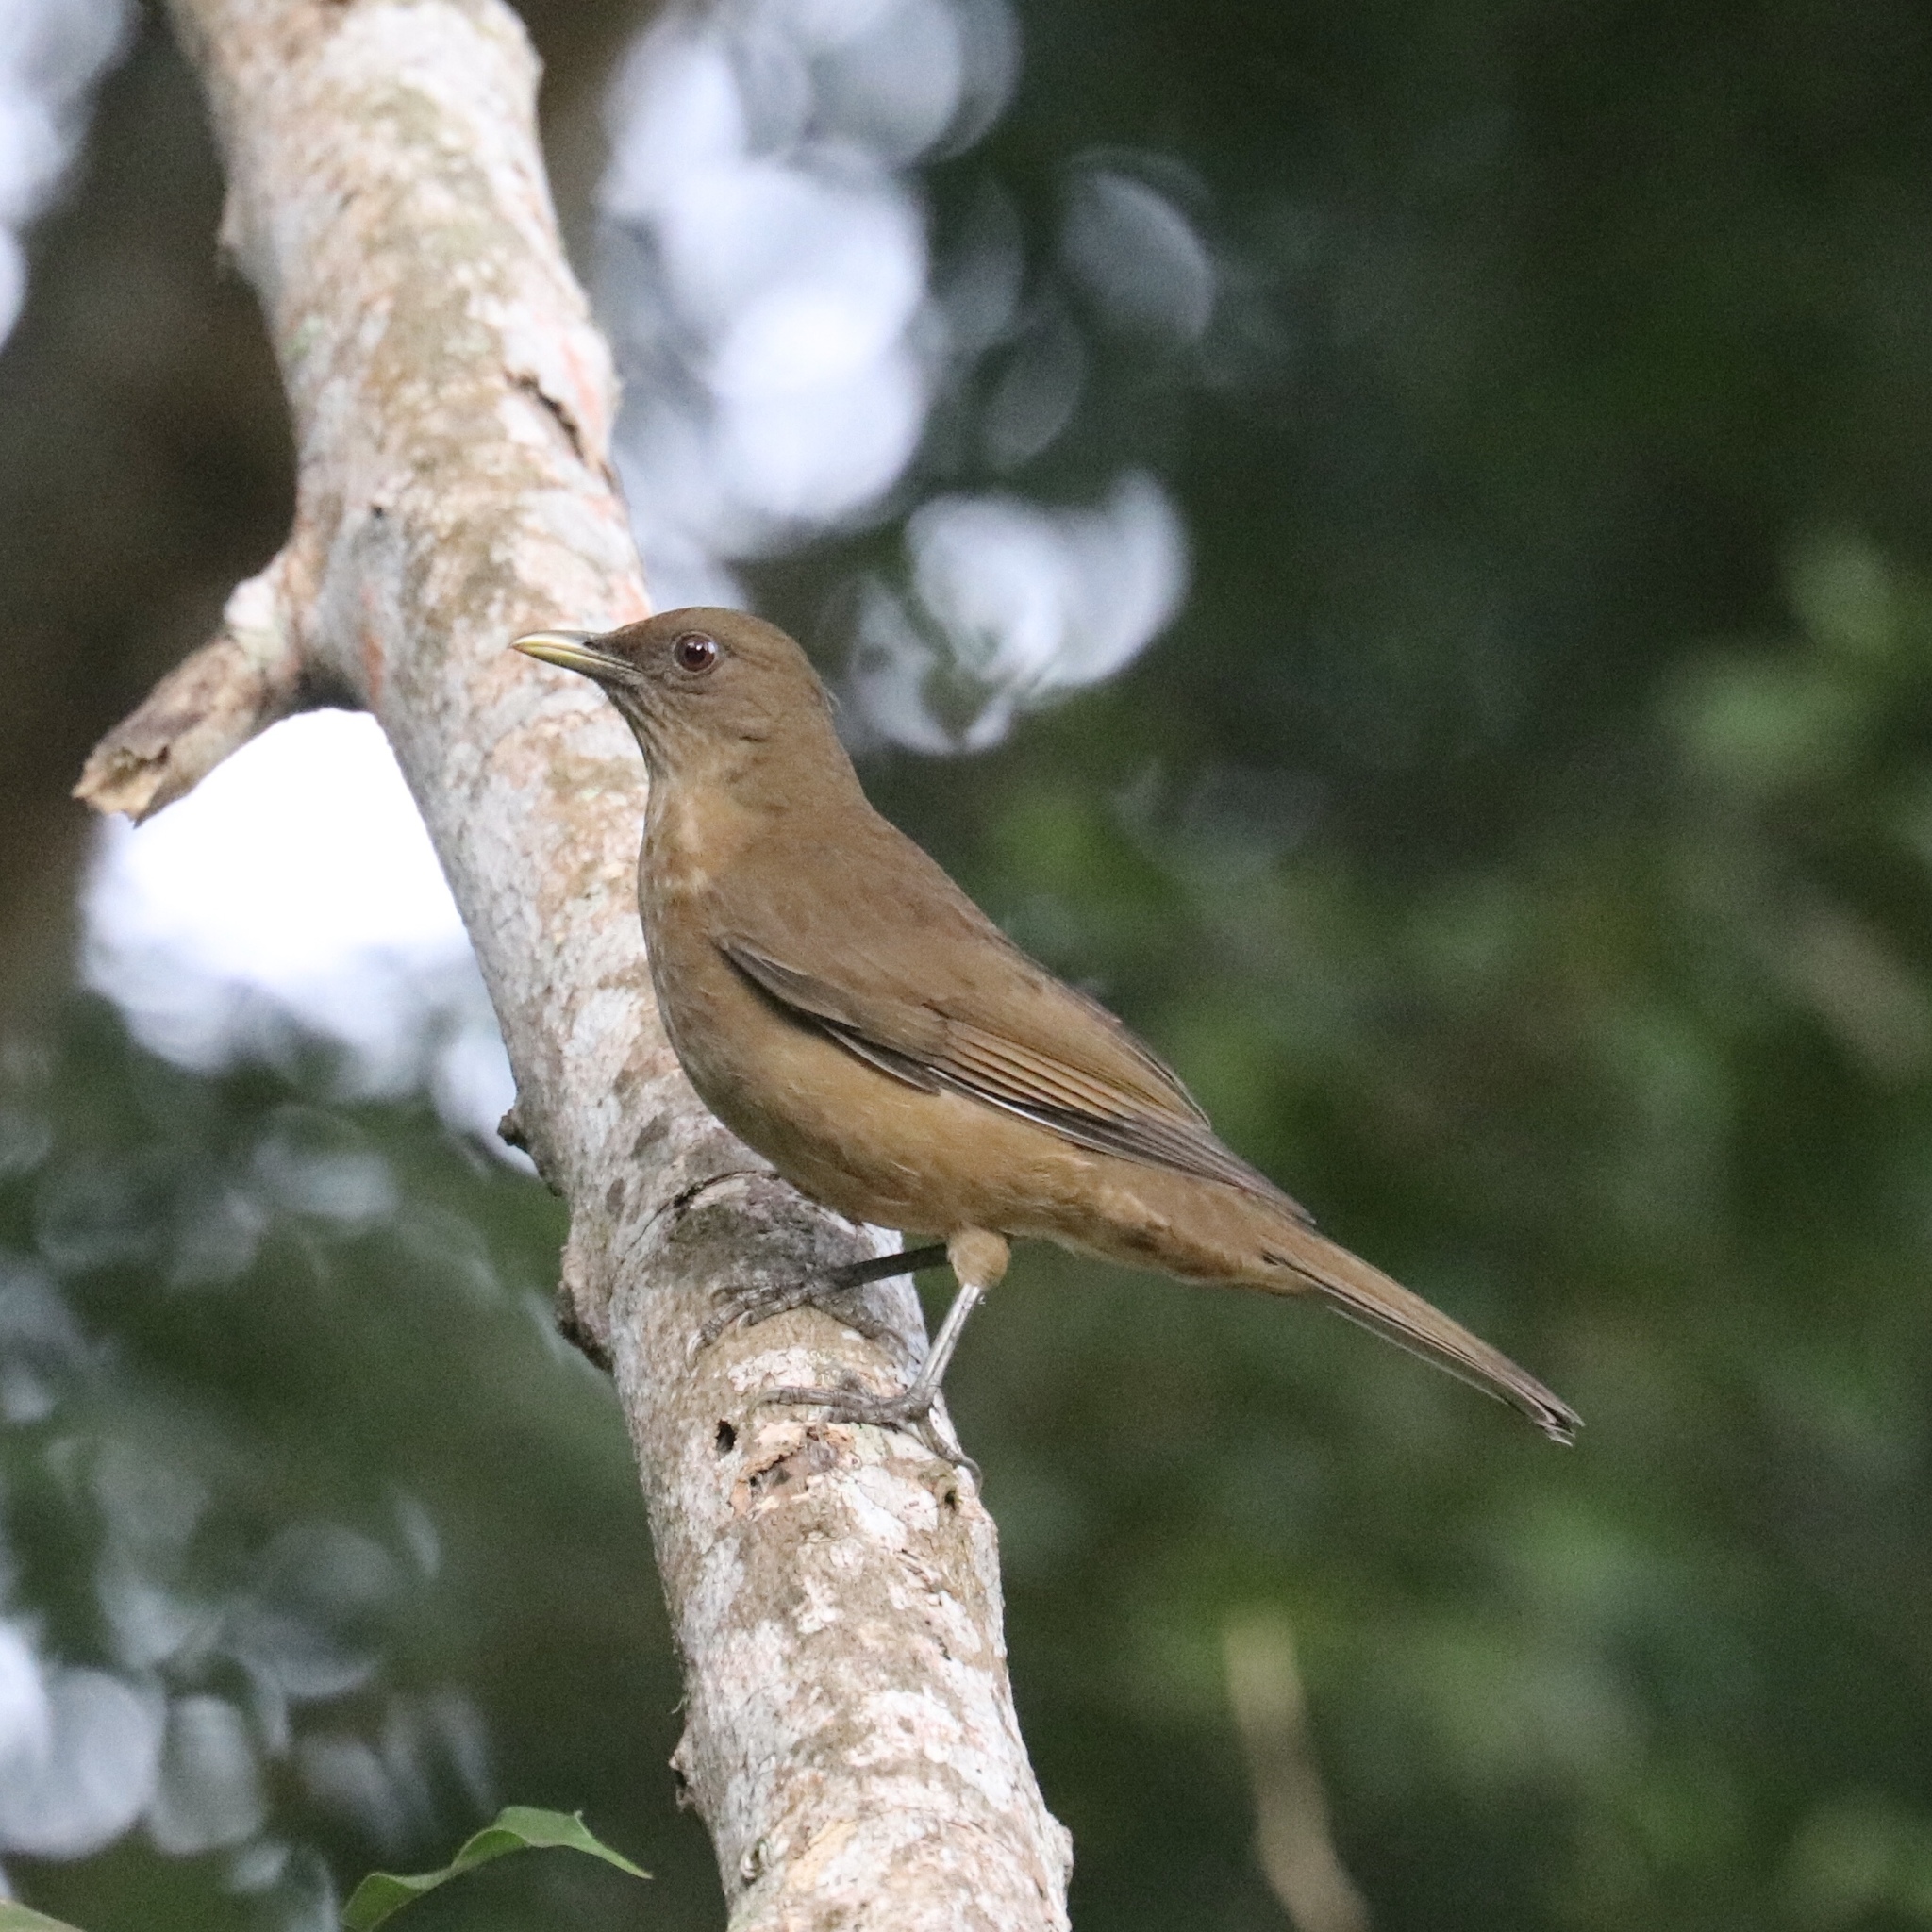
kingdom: Animalia
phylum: Chordata
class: Aves
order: Passeriformes
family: Turdidae
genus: Turdus
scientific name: Turdus grayi
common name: Clay-colored thrush
